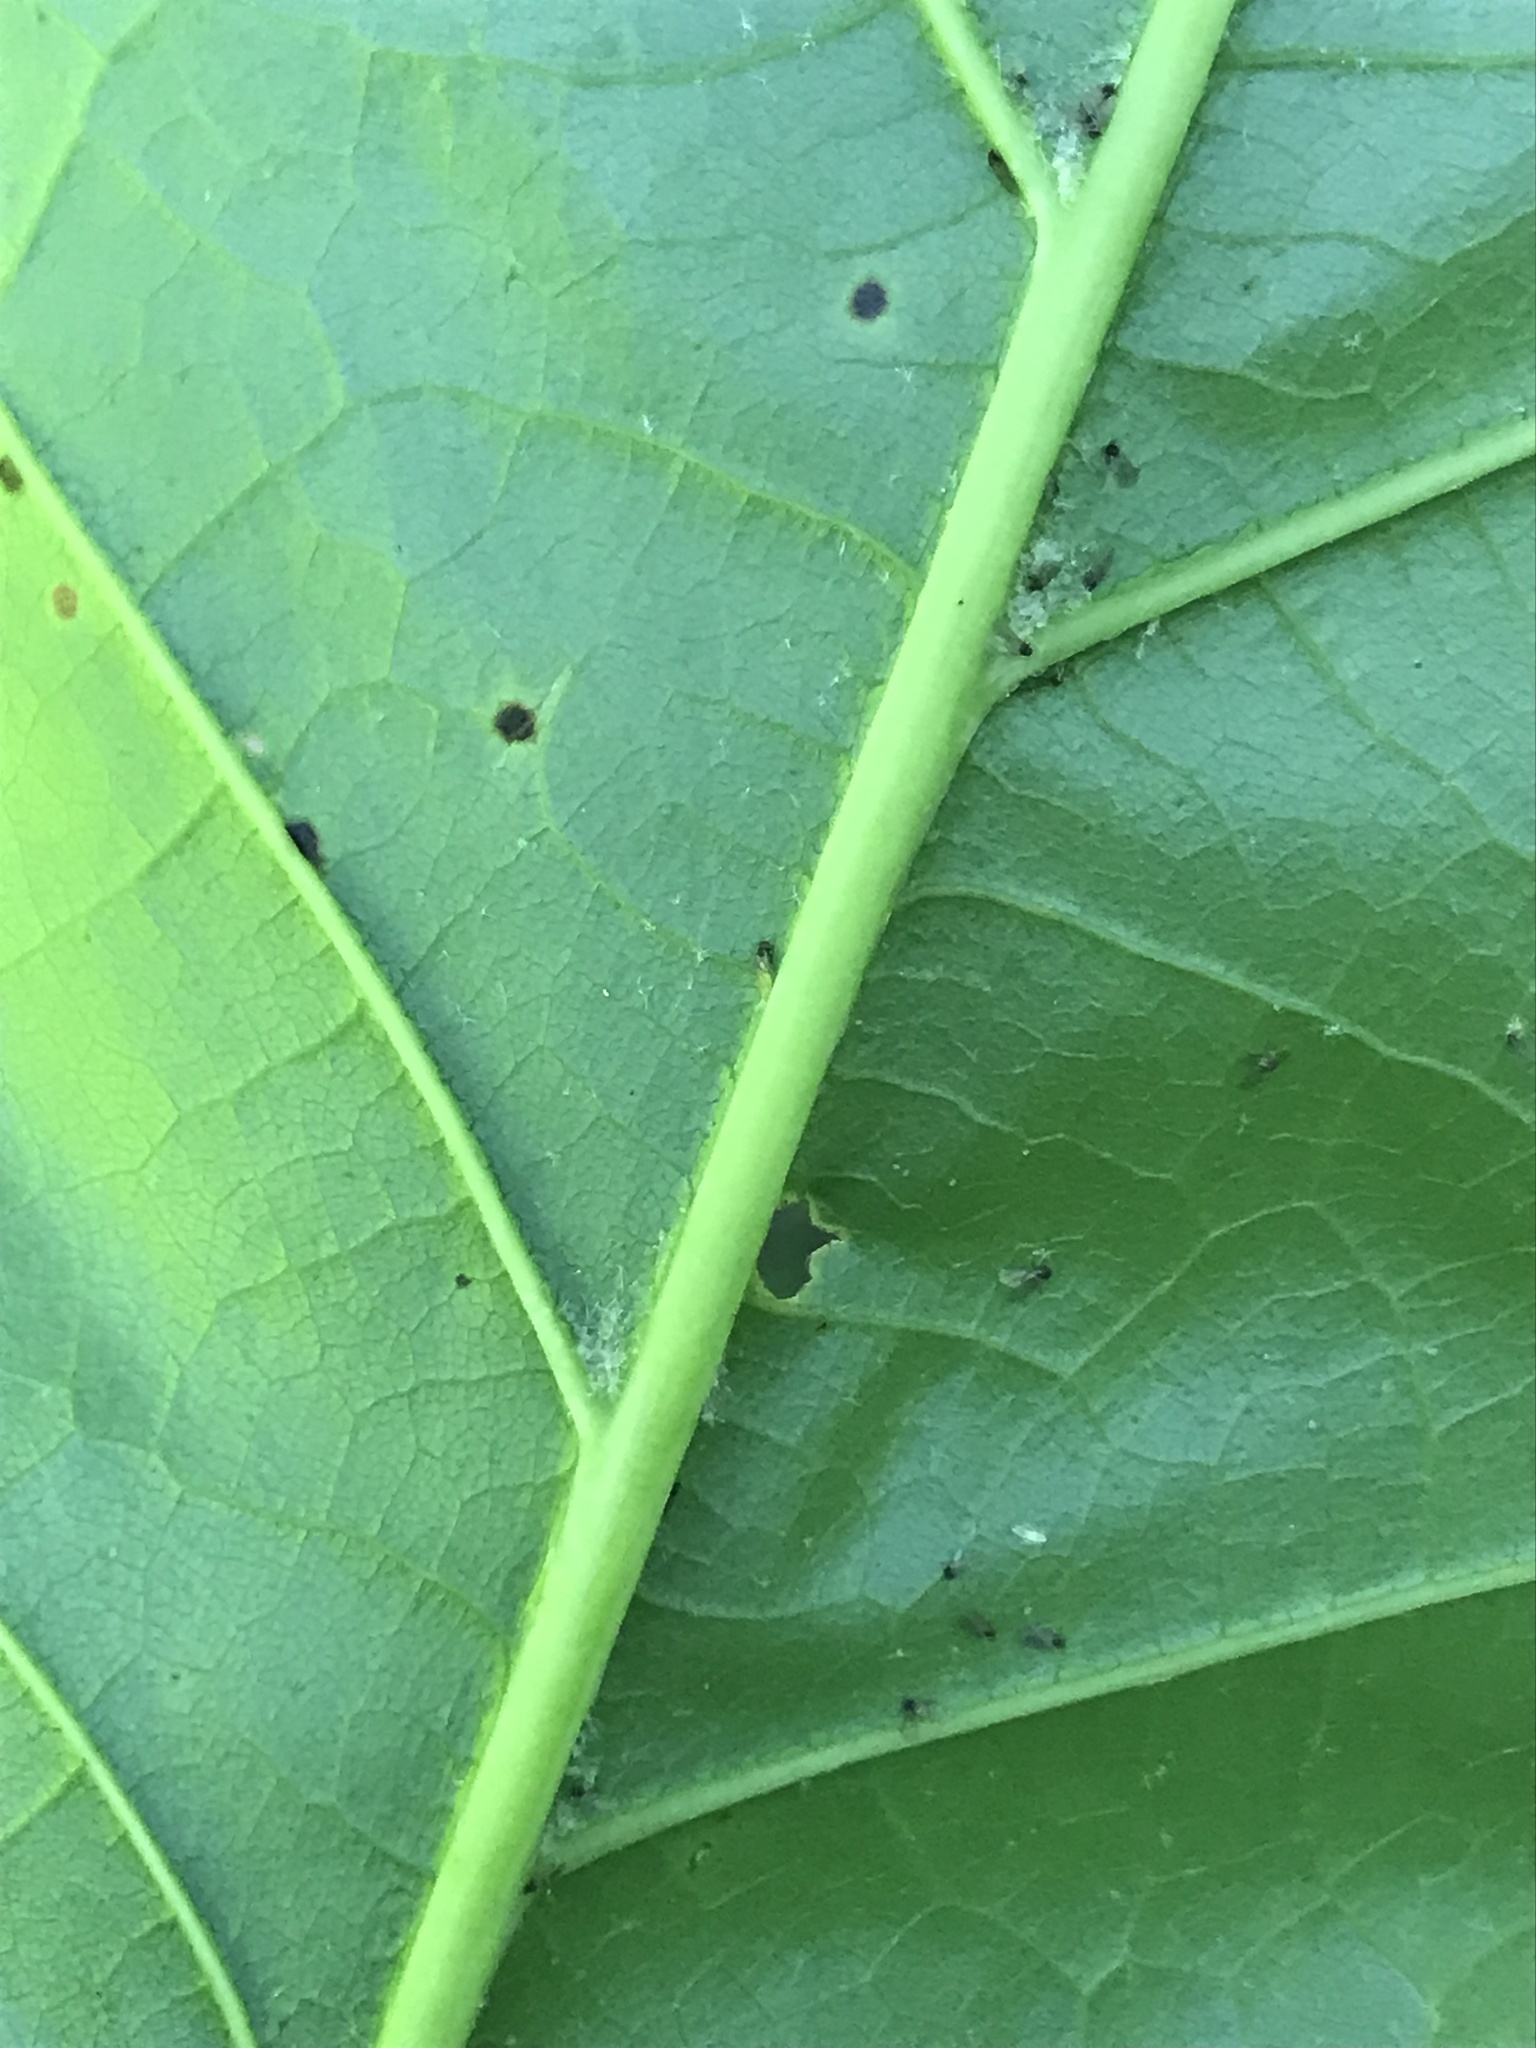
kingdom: Plantae
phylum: Tracheophyta
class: Magnoliopsida
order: Fagales
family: Fagaceae
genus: Quercus
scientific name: Quercus rubra
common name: Red oak
